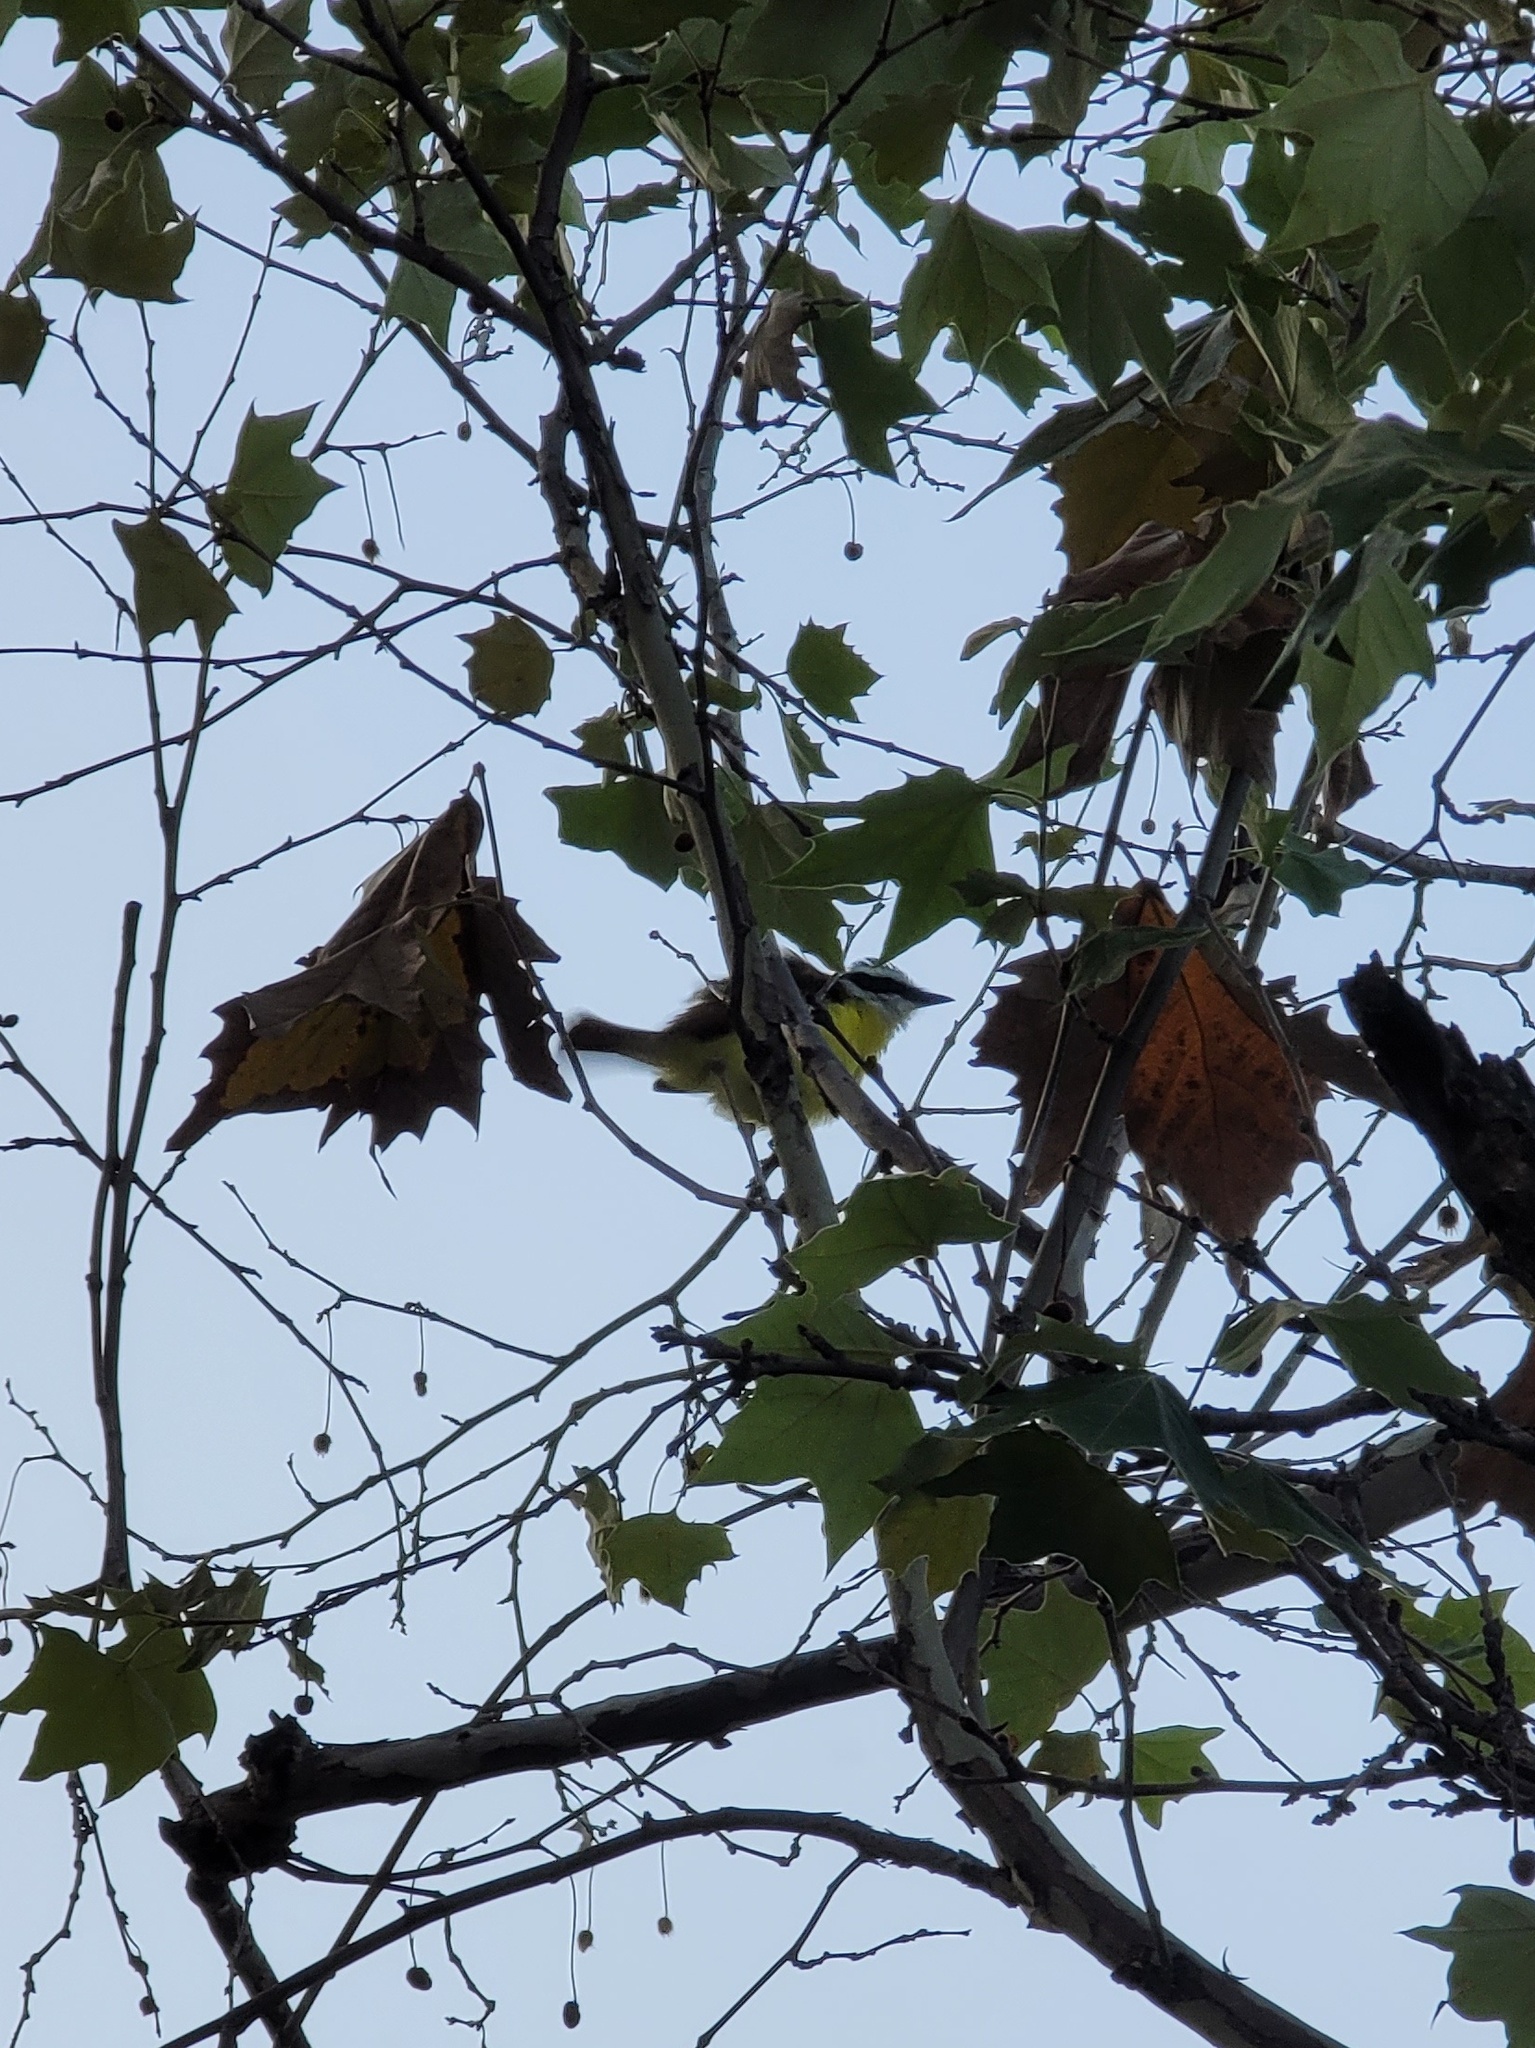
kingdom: Animalia
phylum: Chordata
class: Aves
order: Passeriformes
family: Tyrannidae
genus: Pitangus
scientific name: Pitangus sulphuratus
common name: Great kiskadee
